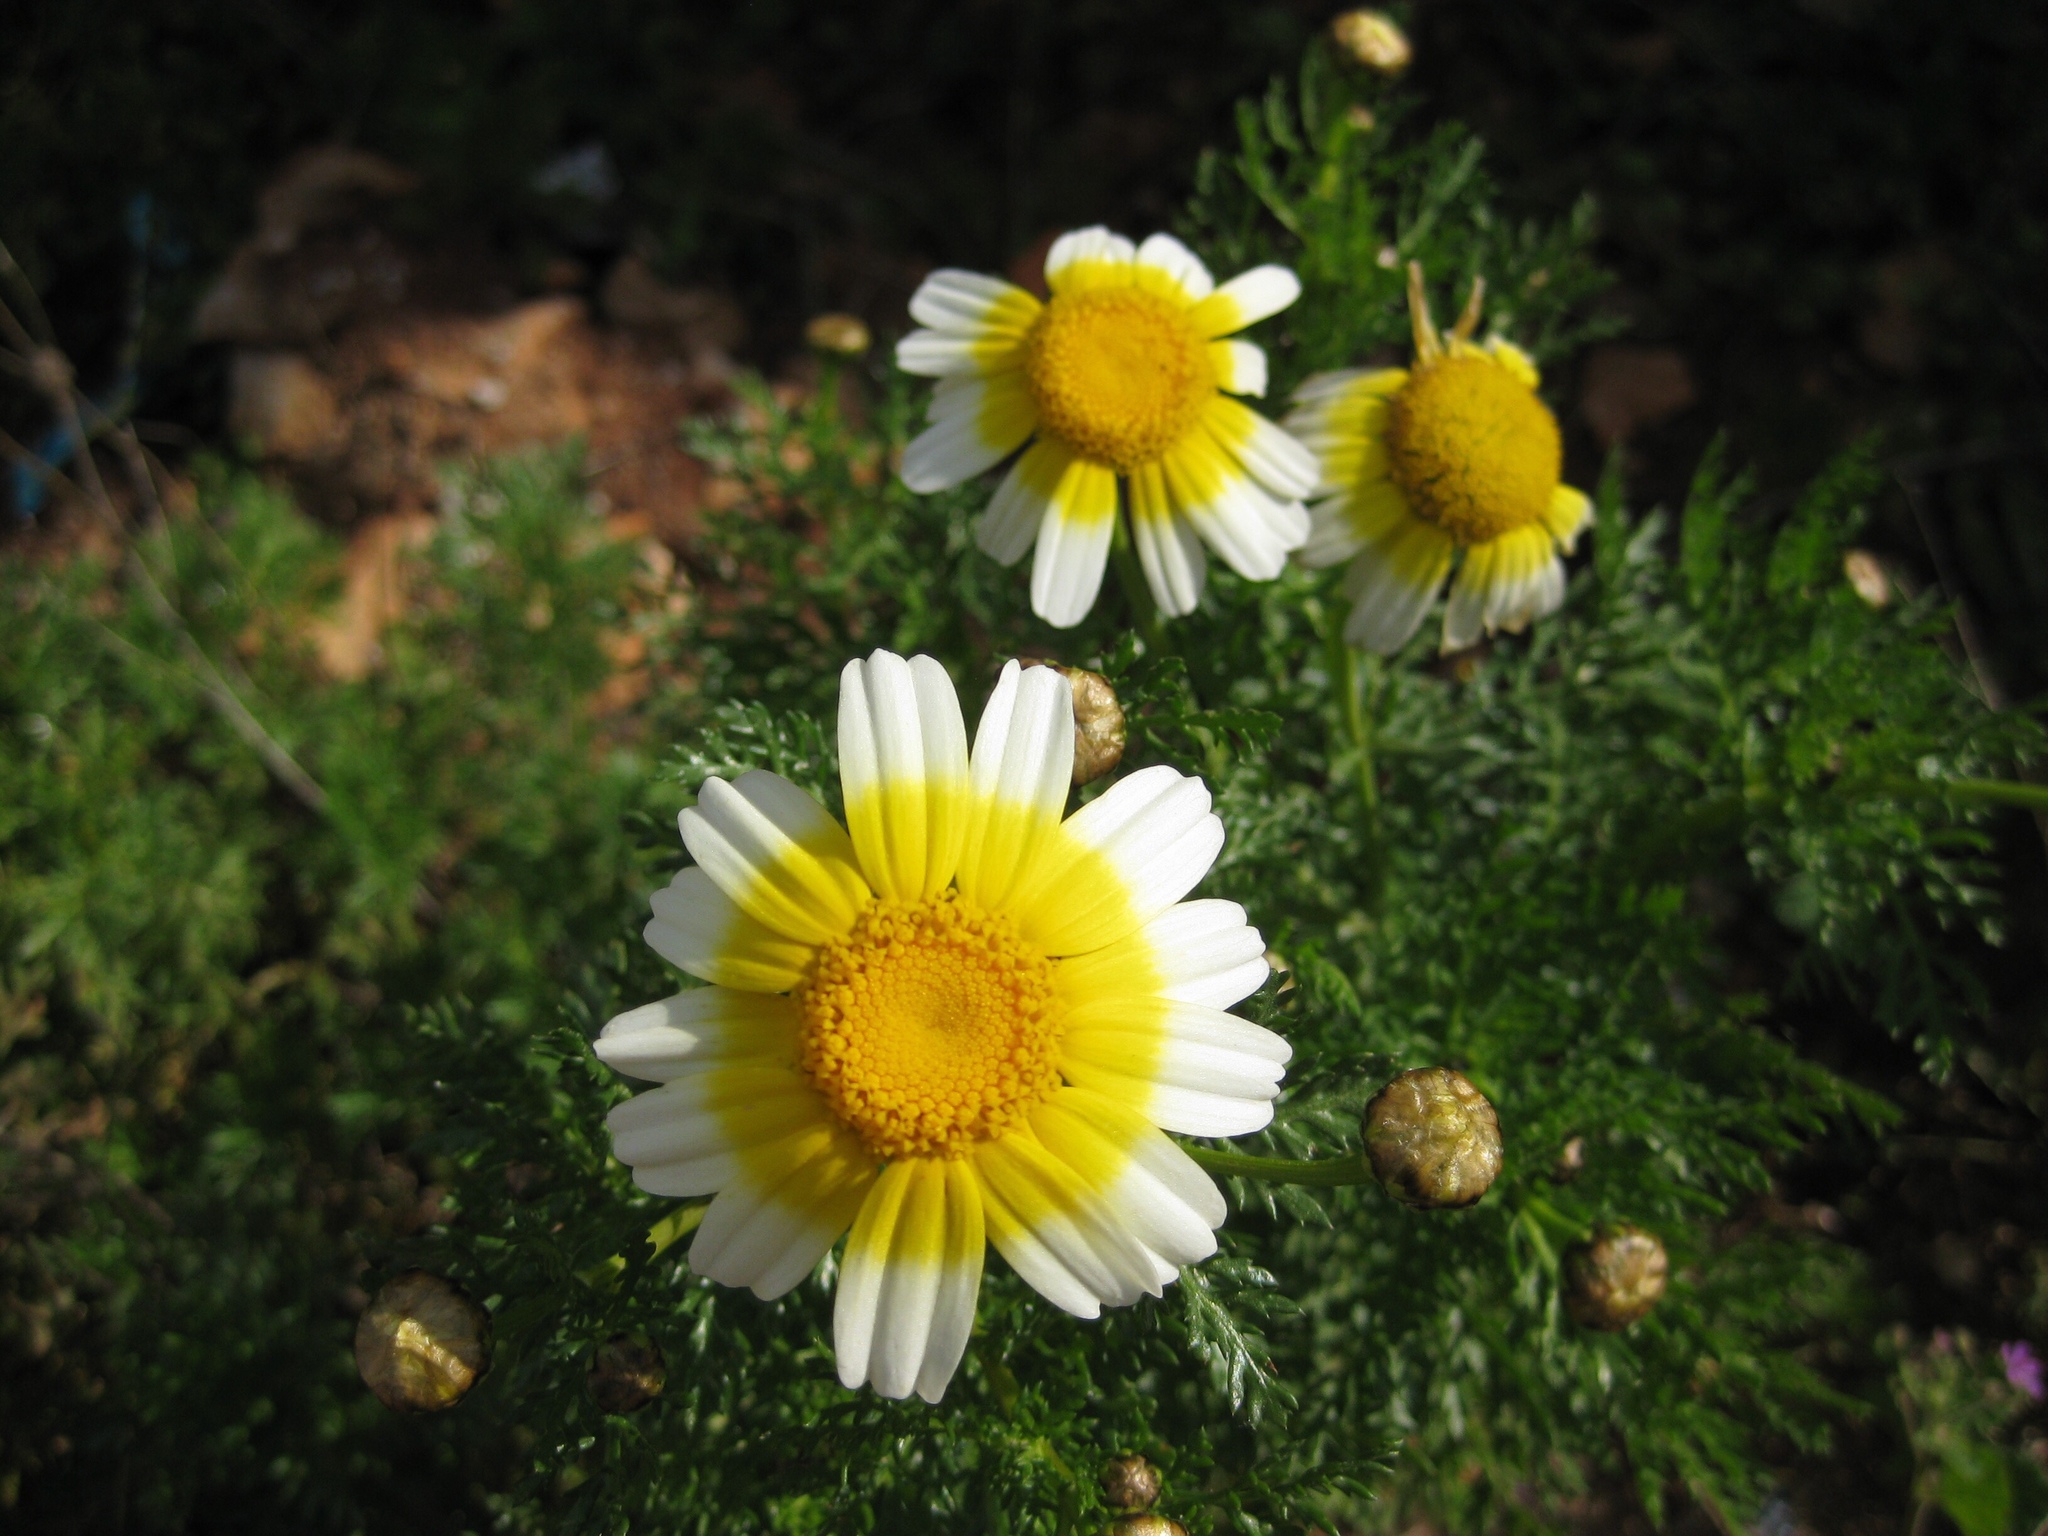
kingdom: Plantae
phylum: Tracheophyta
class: Magnoliopsida
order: Asterales
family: Asteraceae
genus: Glebionis
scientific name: Glebionis coronaria
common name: Crowndaisy
